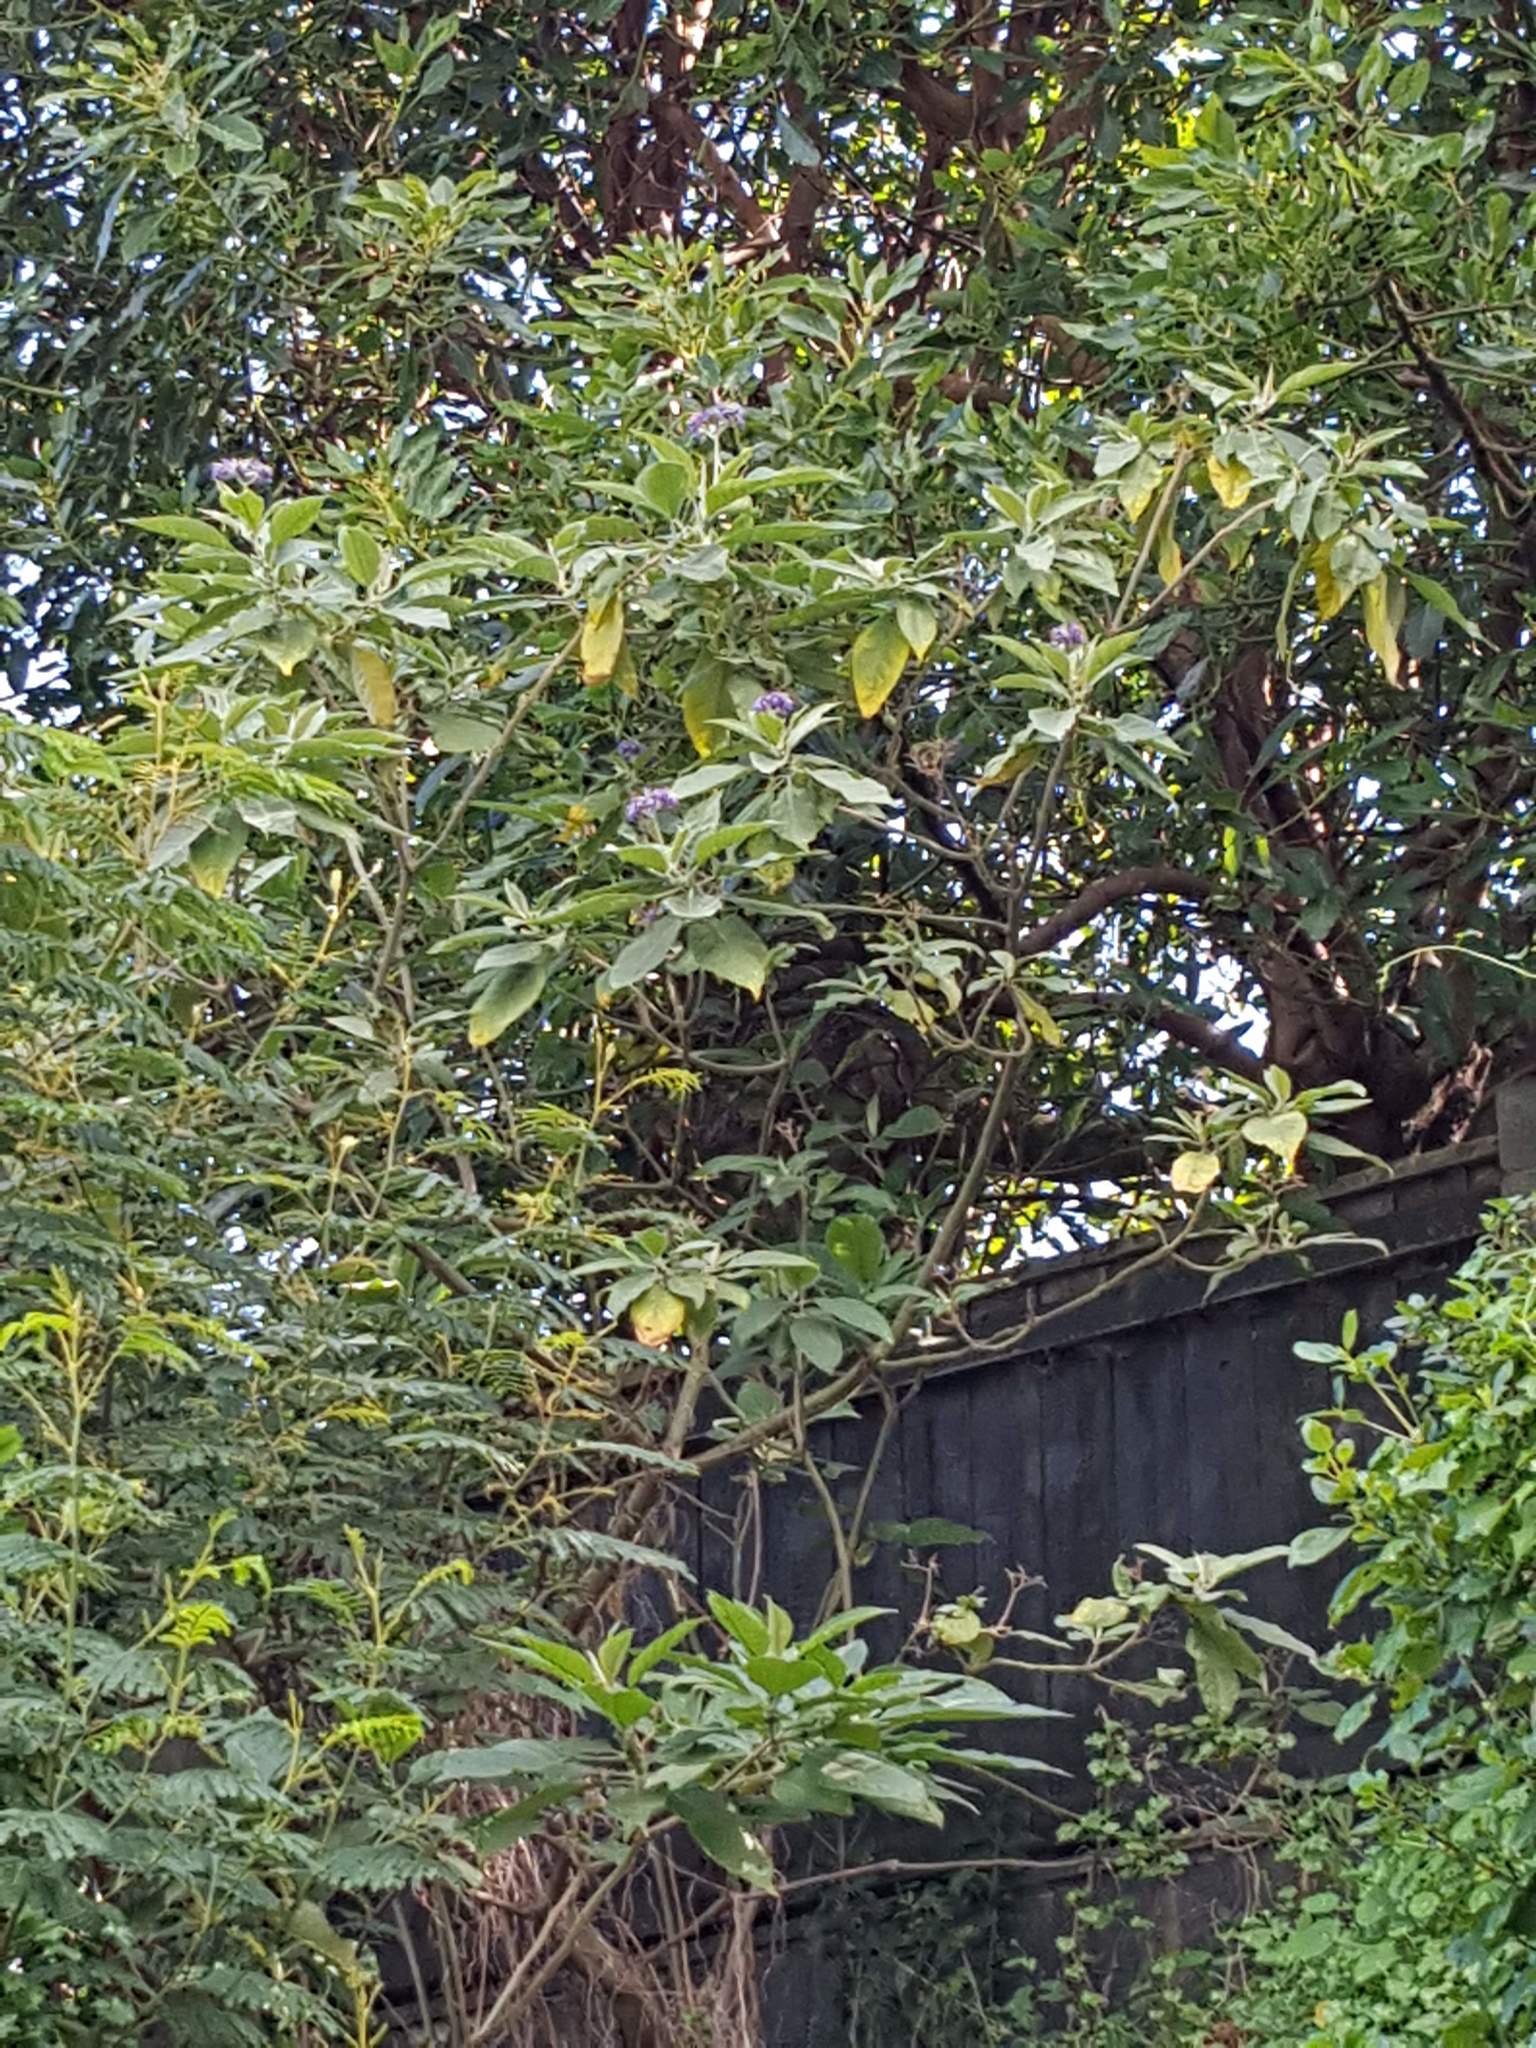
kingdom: Plantae
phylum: Tracheophyta
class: Magnoliopsida
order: Solanales
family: Solanaceae
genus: Solanum
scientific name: Solanum mauritianum
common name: Earleaf nightshade
